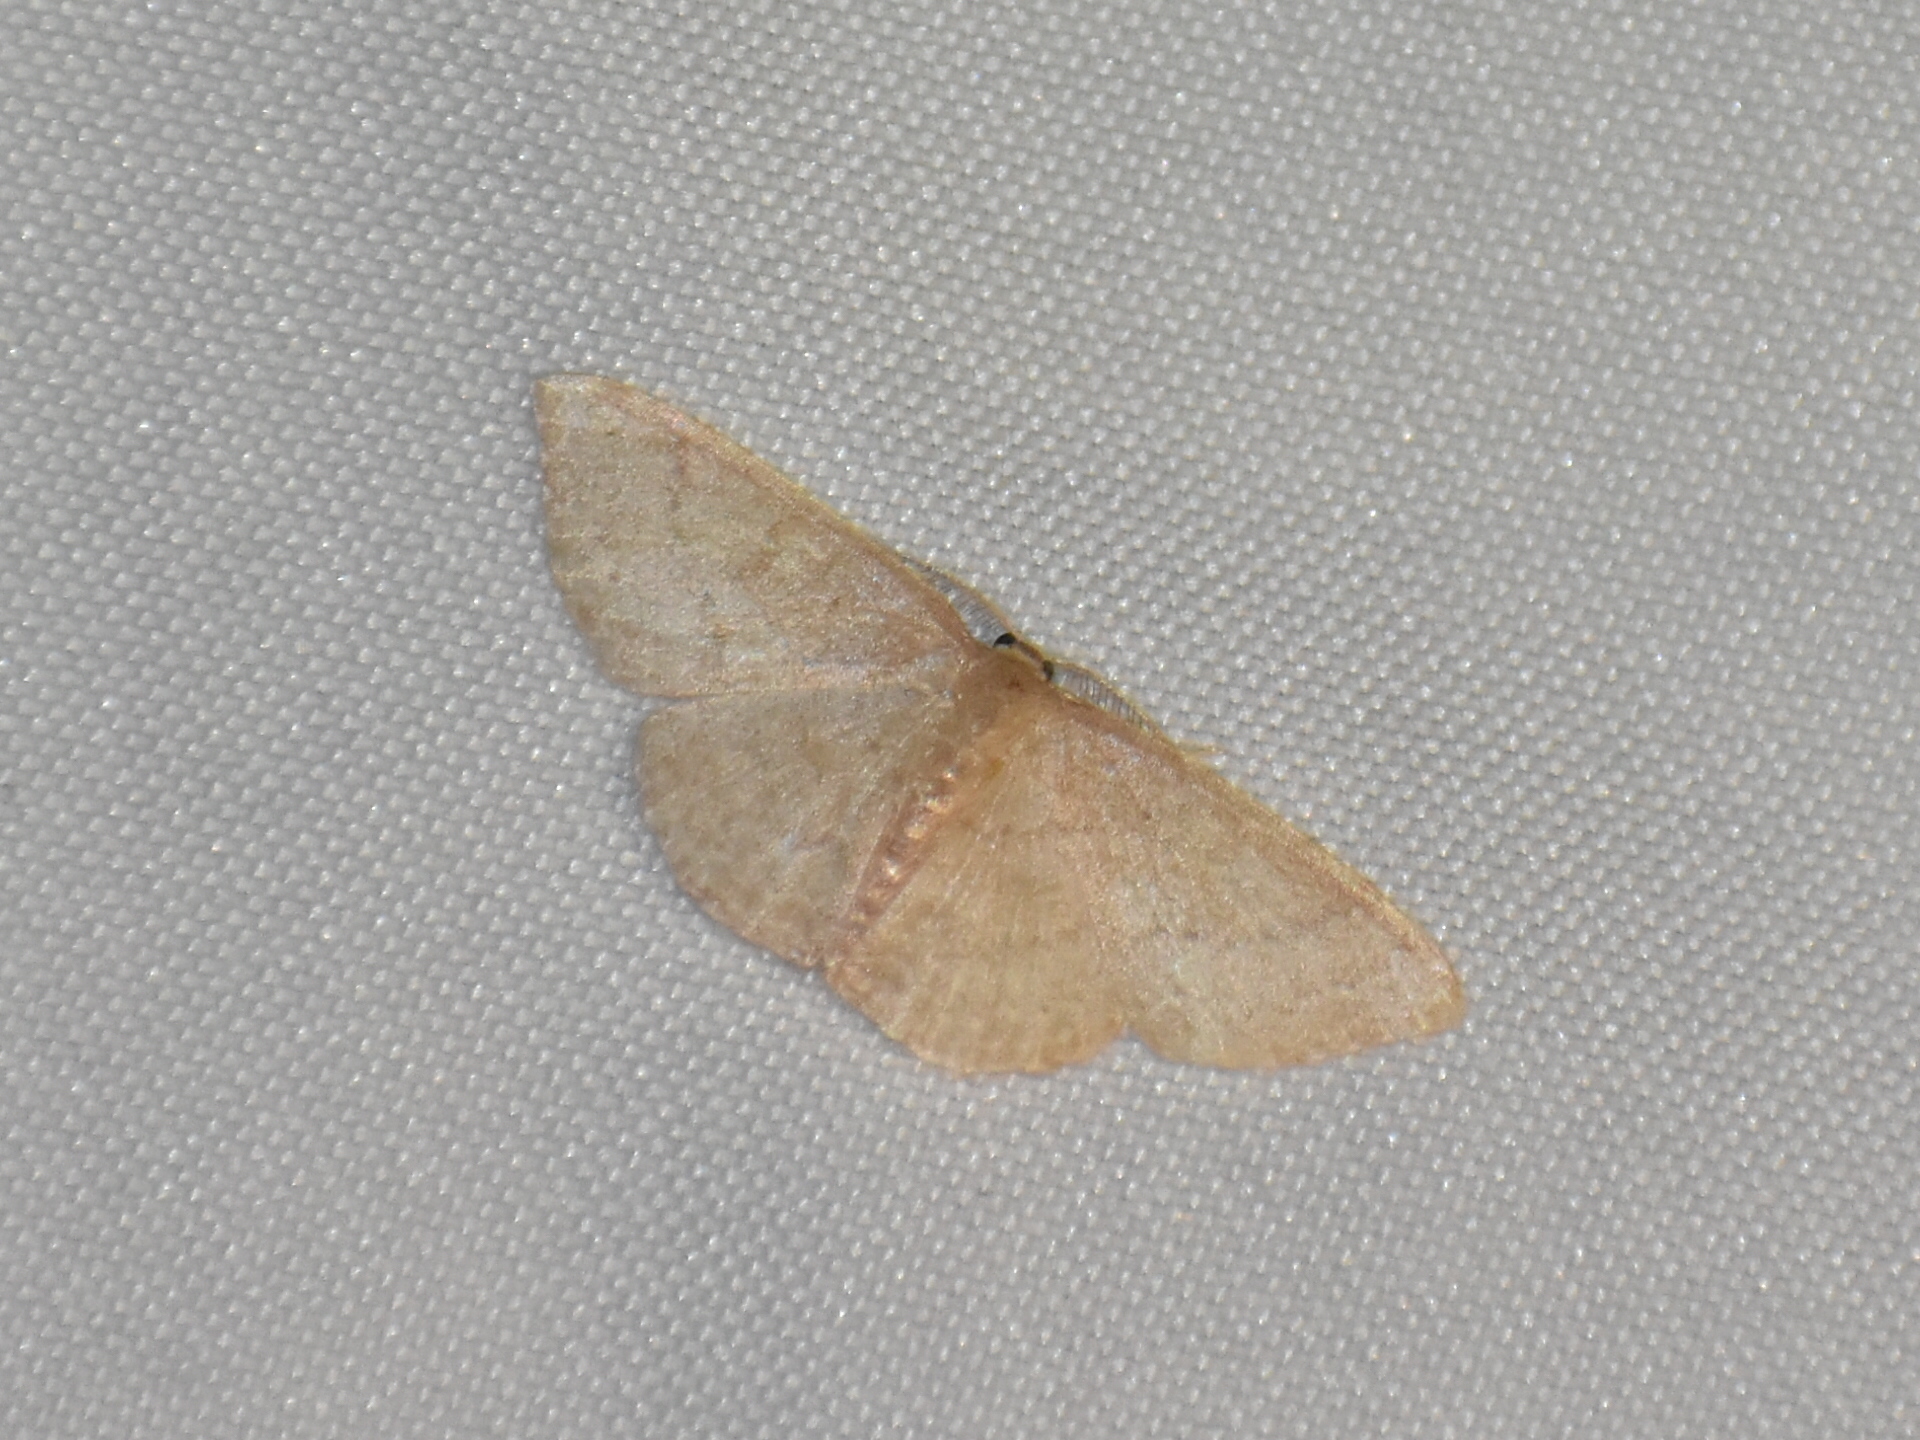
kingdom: Animalia
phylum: Arthropoda
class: Insecta
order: Lepidoptera
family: Geometridae
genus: Pleuroprucha
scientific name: Pleuroprucha insulsaria
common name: Common tan wave
